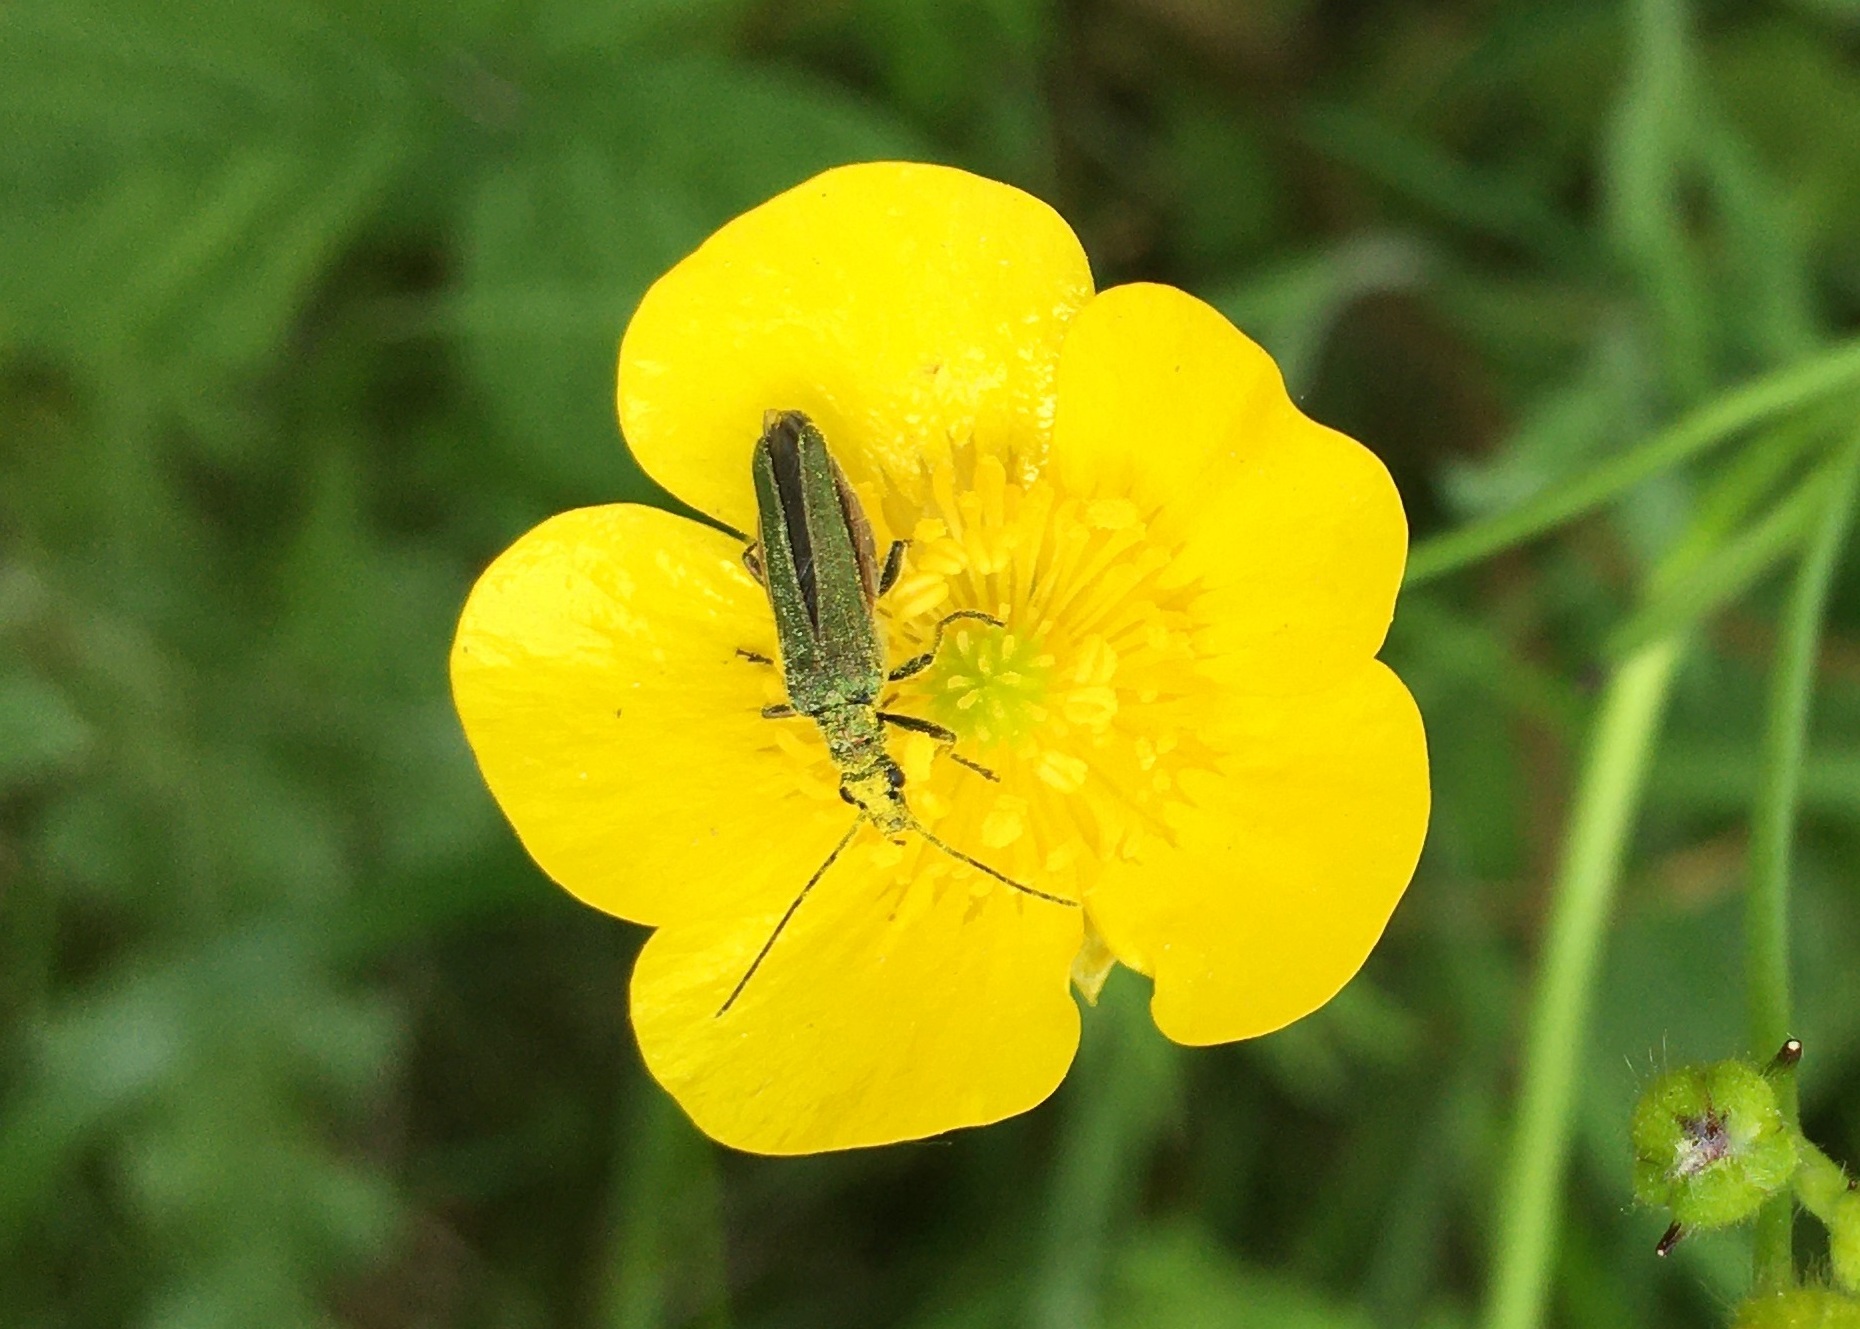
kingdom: Animalia
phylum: Arthropoda
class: Insecta
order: Coleoptera
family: Oedemeridae
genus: Oedemera
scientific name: Oedemera nobilis
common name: Swollen-thighed beetle
